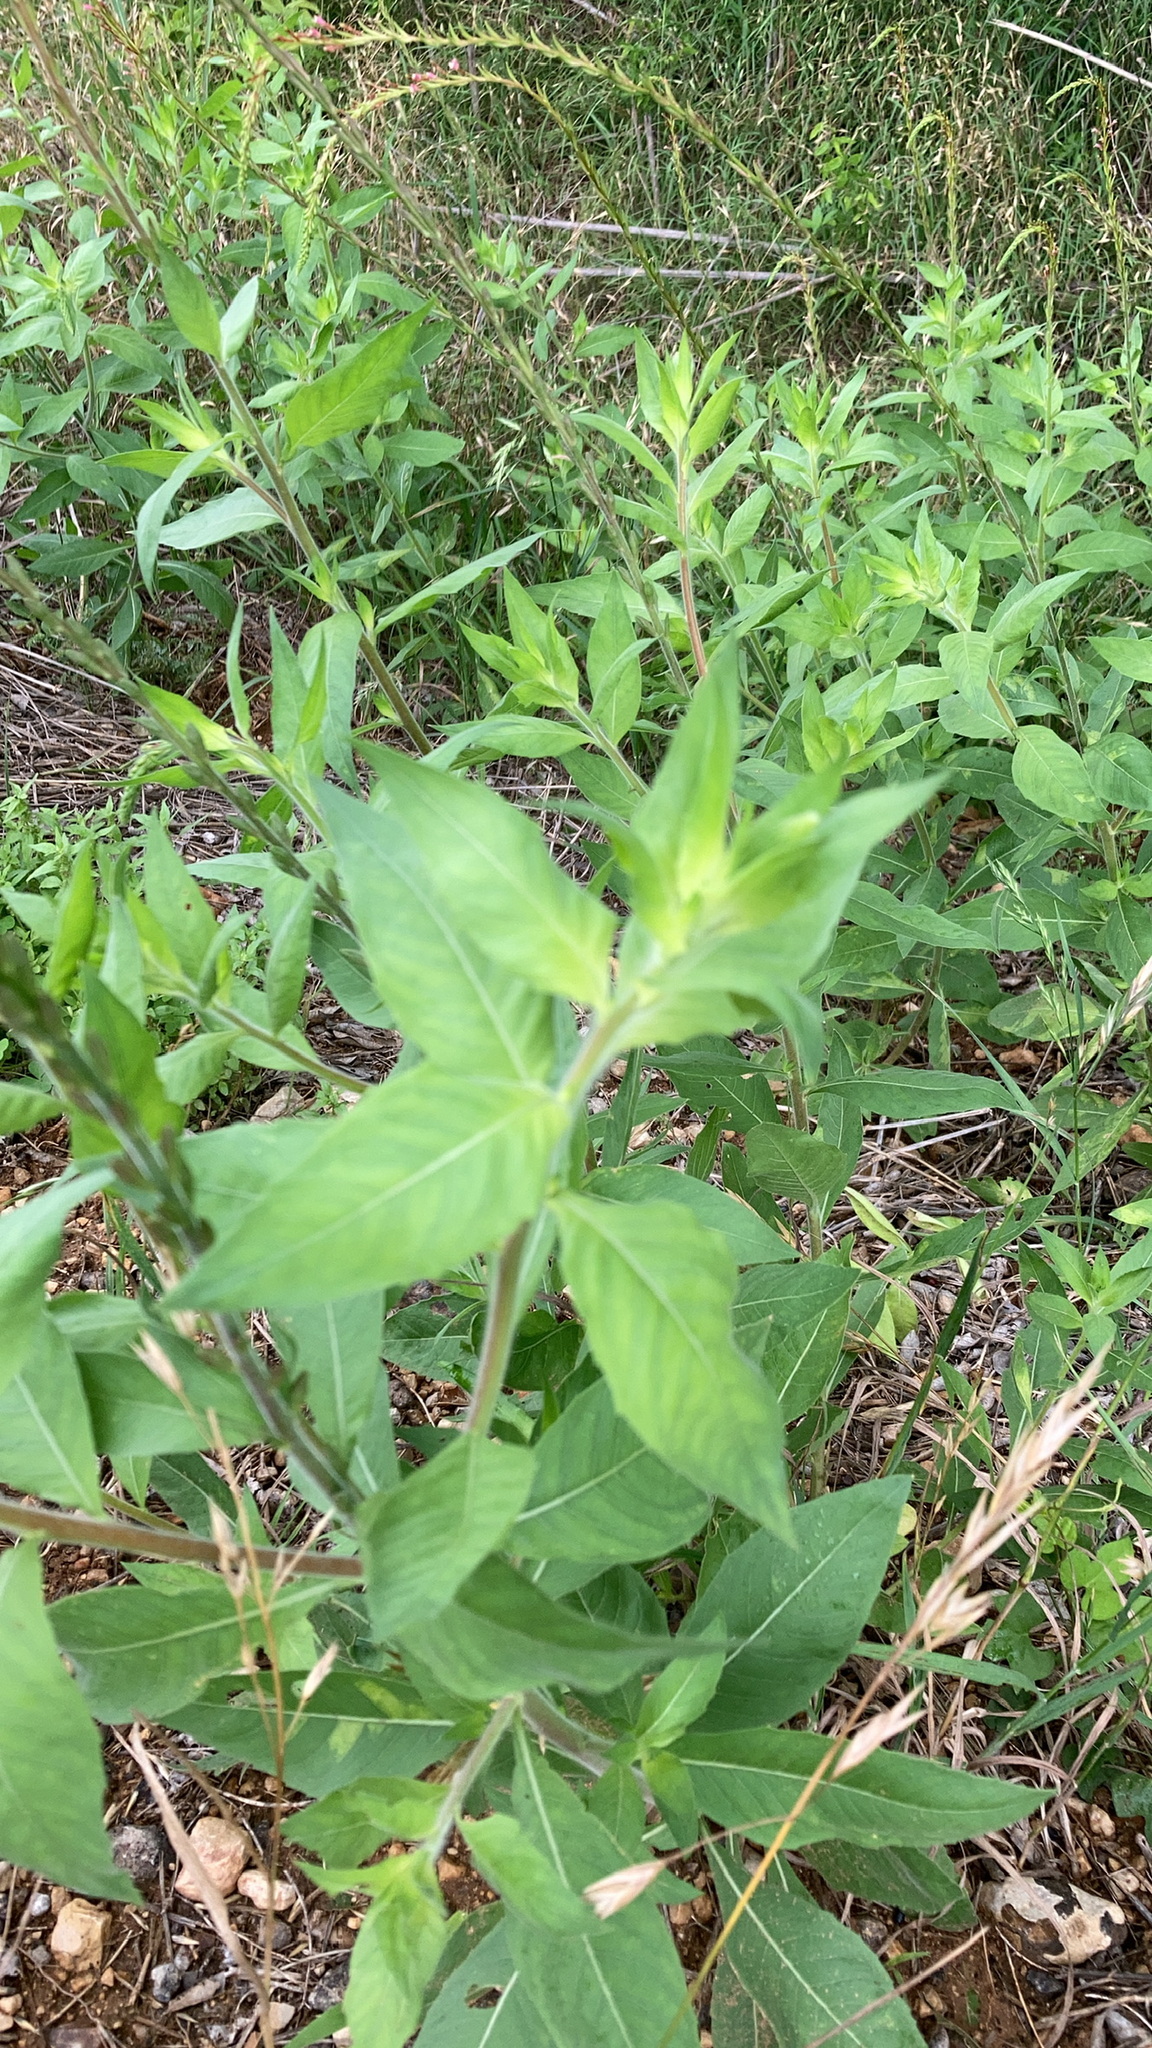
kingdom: Plantae
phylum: Tracheophyta
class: Magnoliopsida
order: Myrtales
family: Onagraceae
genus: Oenothera
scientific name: Oenothera curtiflora
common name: Velvetweed
